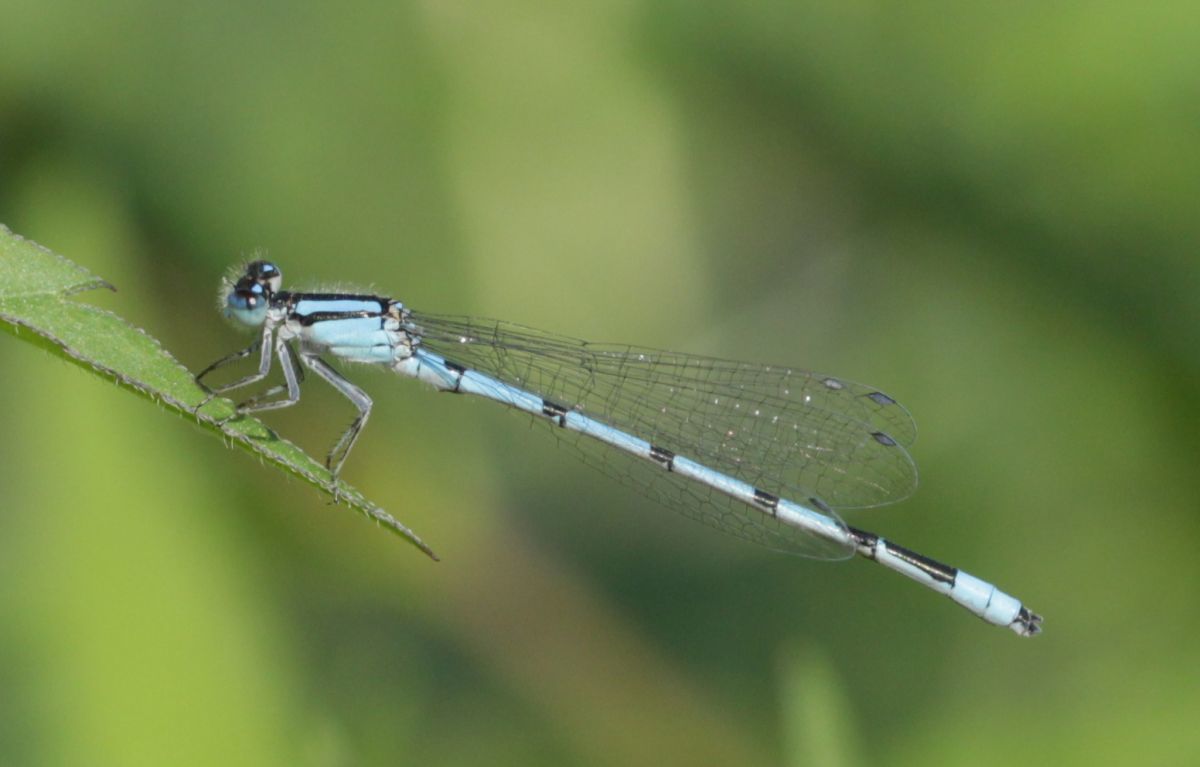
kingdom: Animalia
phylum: Arthropoda
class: Insecta
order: Odonata
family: Coenagrionidae
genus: Enallagma
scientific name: Enallagma civile
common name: Damselfly
